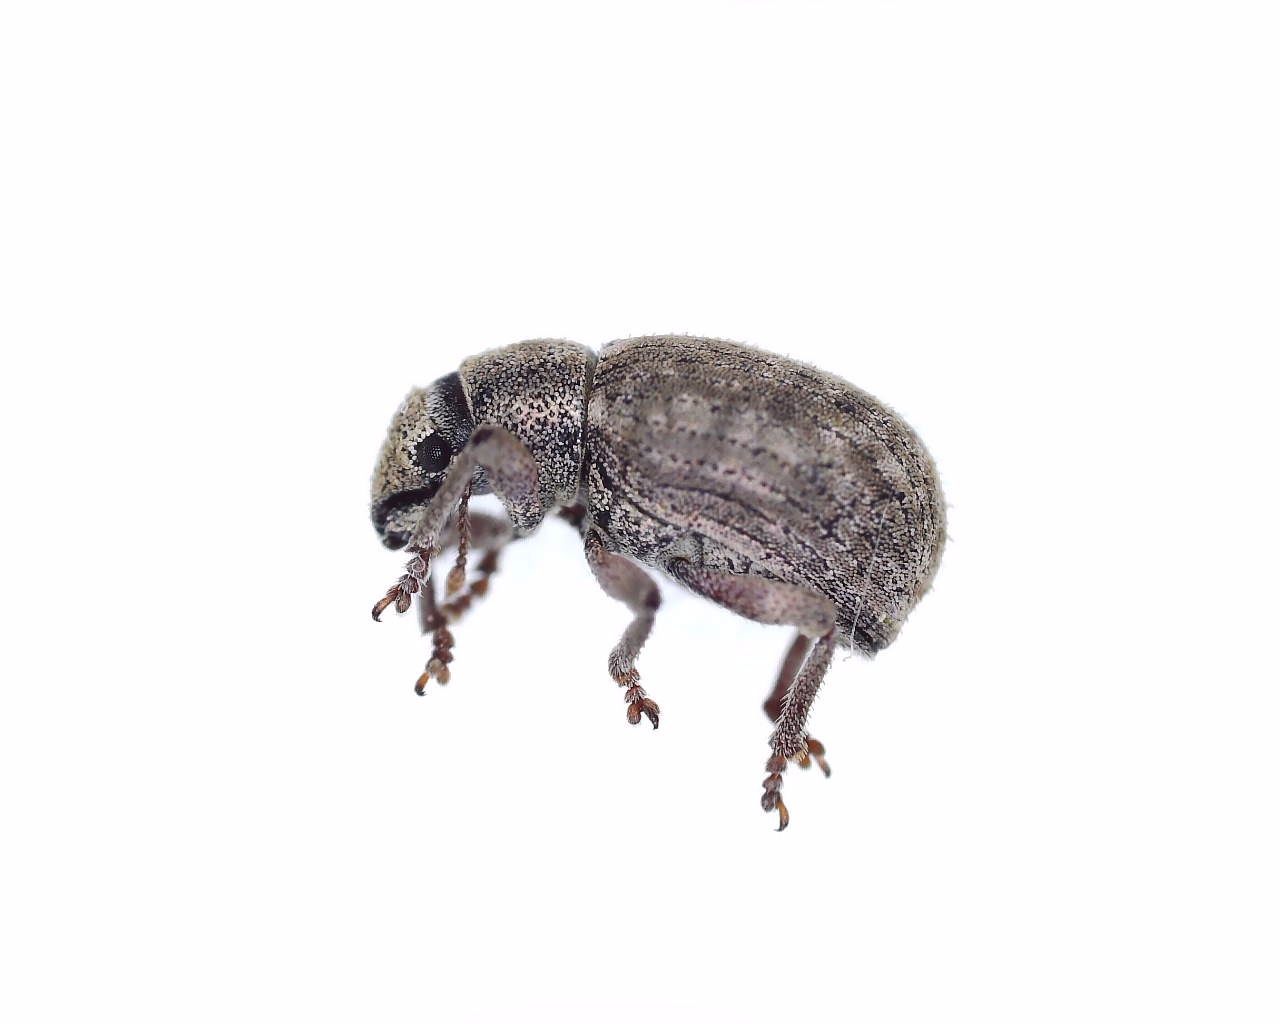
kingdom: Animalia
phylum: Arthropoda
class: Insecta
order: Coleoptera
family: Curculionidae
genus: Strophosoma
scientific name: Strophosoma capitatum
